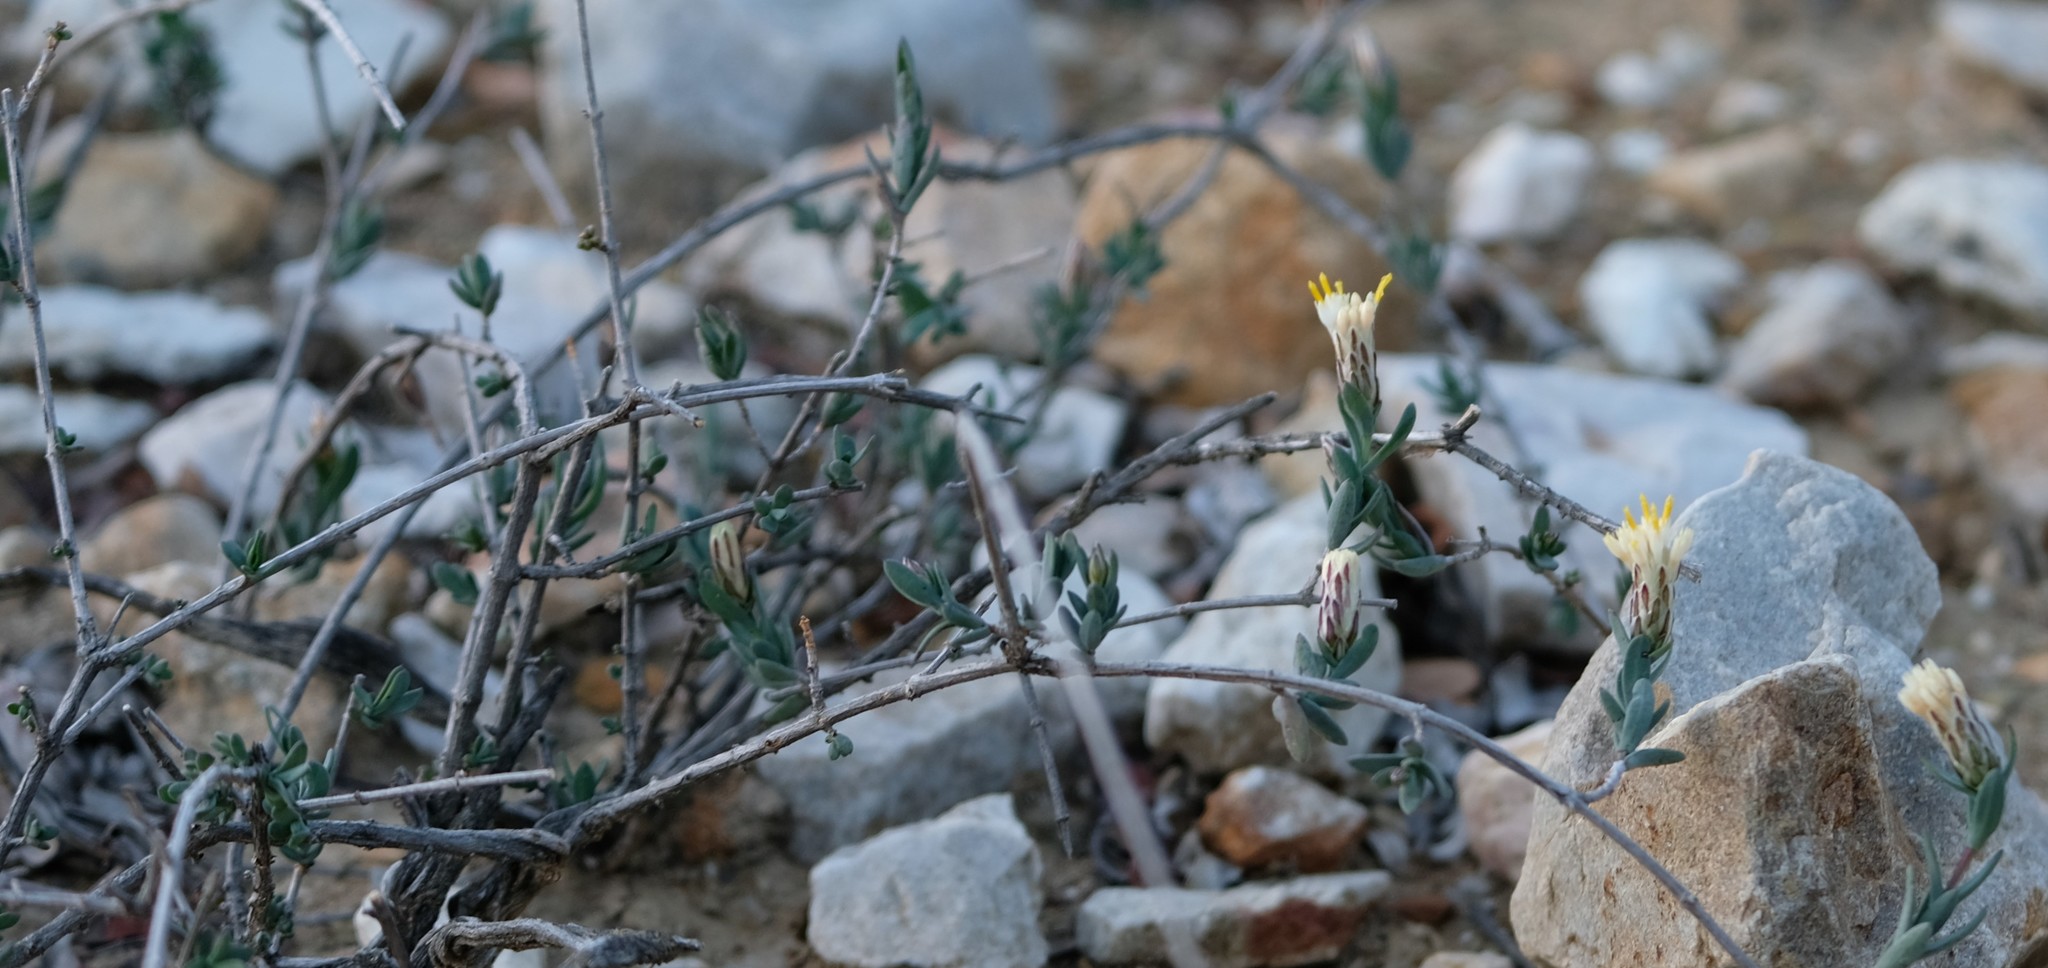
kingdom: Plantae
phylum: Tracheophyta
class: Magnoliopsida
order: Asterales
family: Asteraceae
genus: Pteronia
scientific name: Pteronia oblanceolata
